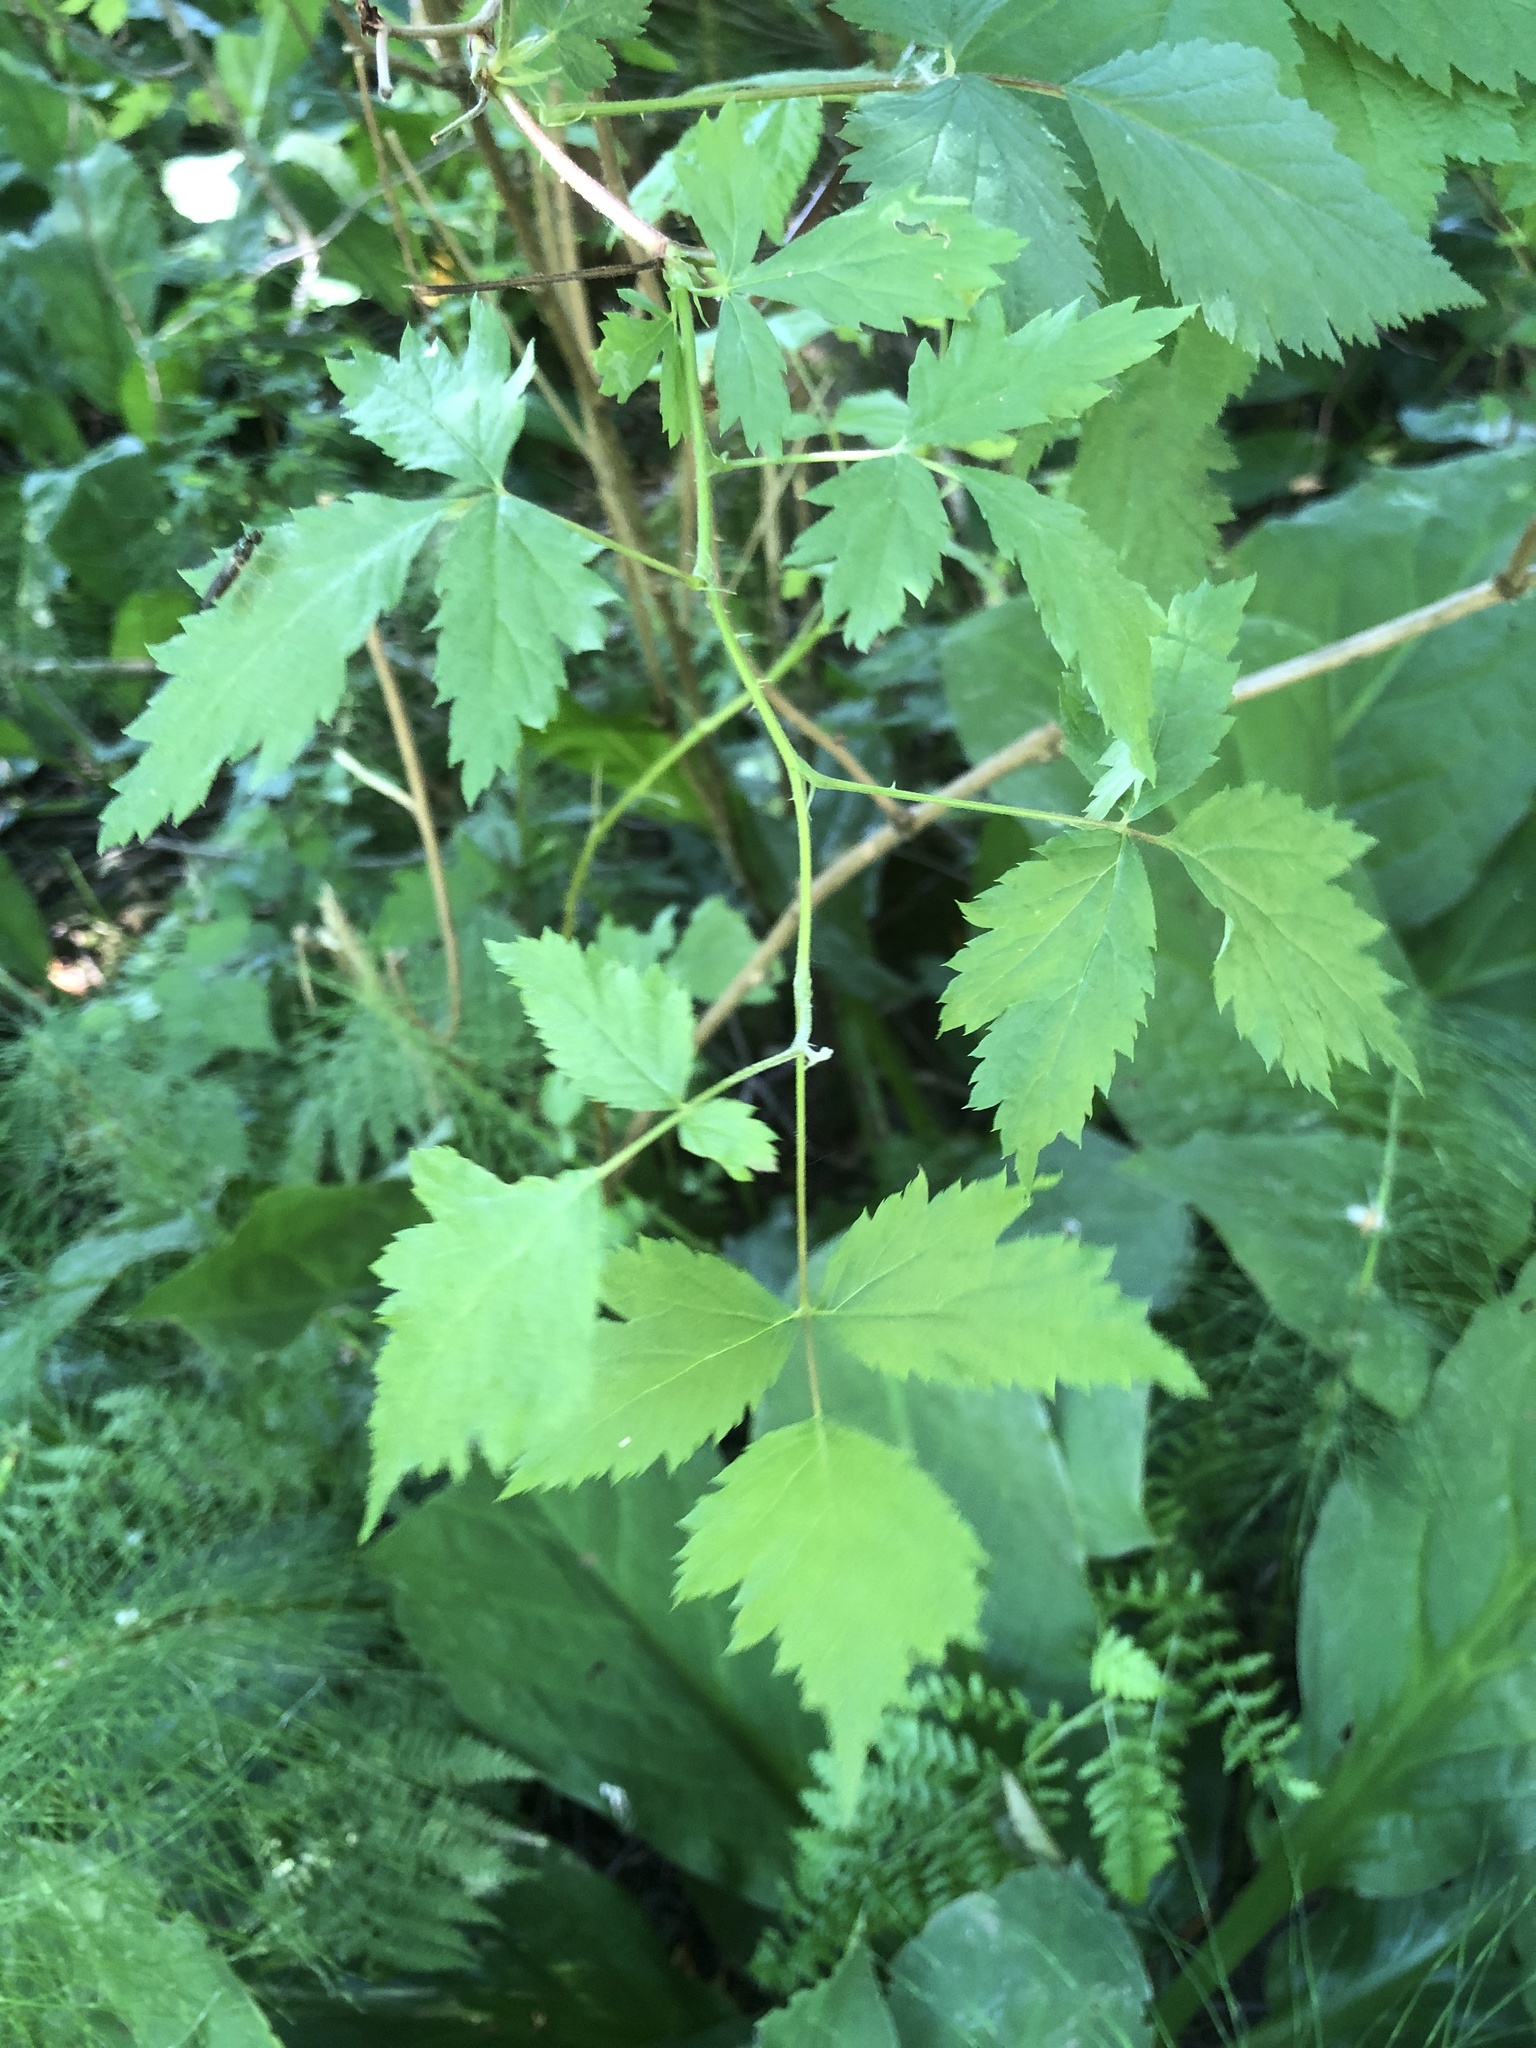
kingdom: Plantae
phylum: Tracheophyta
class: Magnoliopsida
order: Rosales
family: Rosaceae
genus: Rubus
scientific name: Rubus spectabilis
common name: Salmonberry
